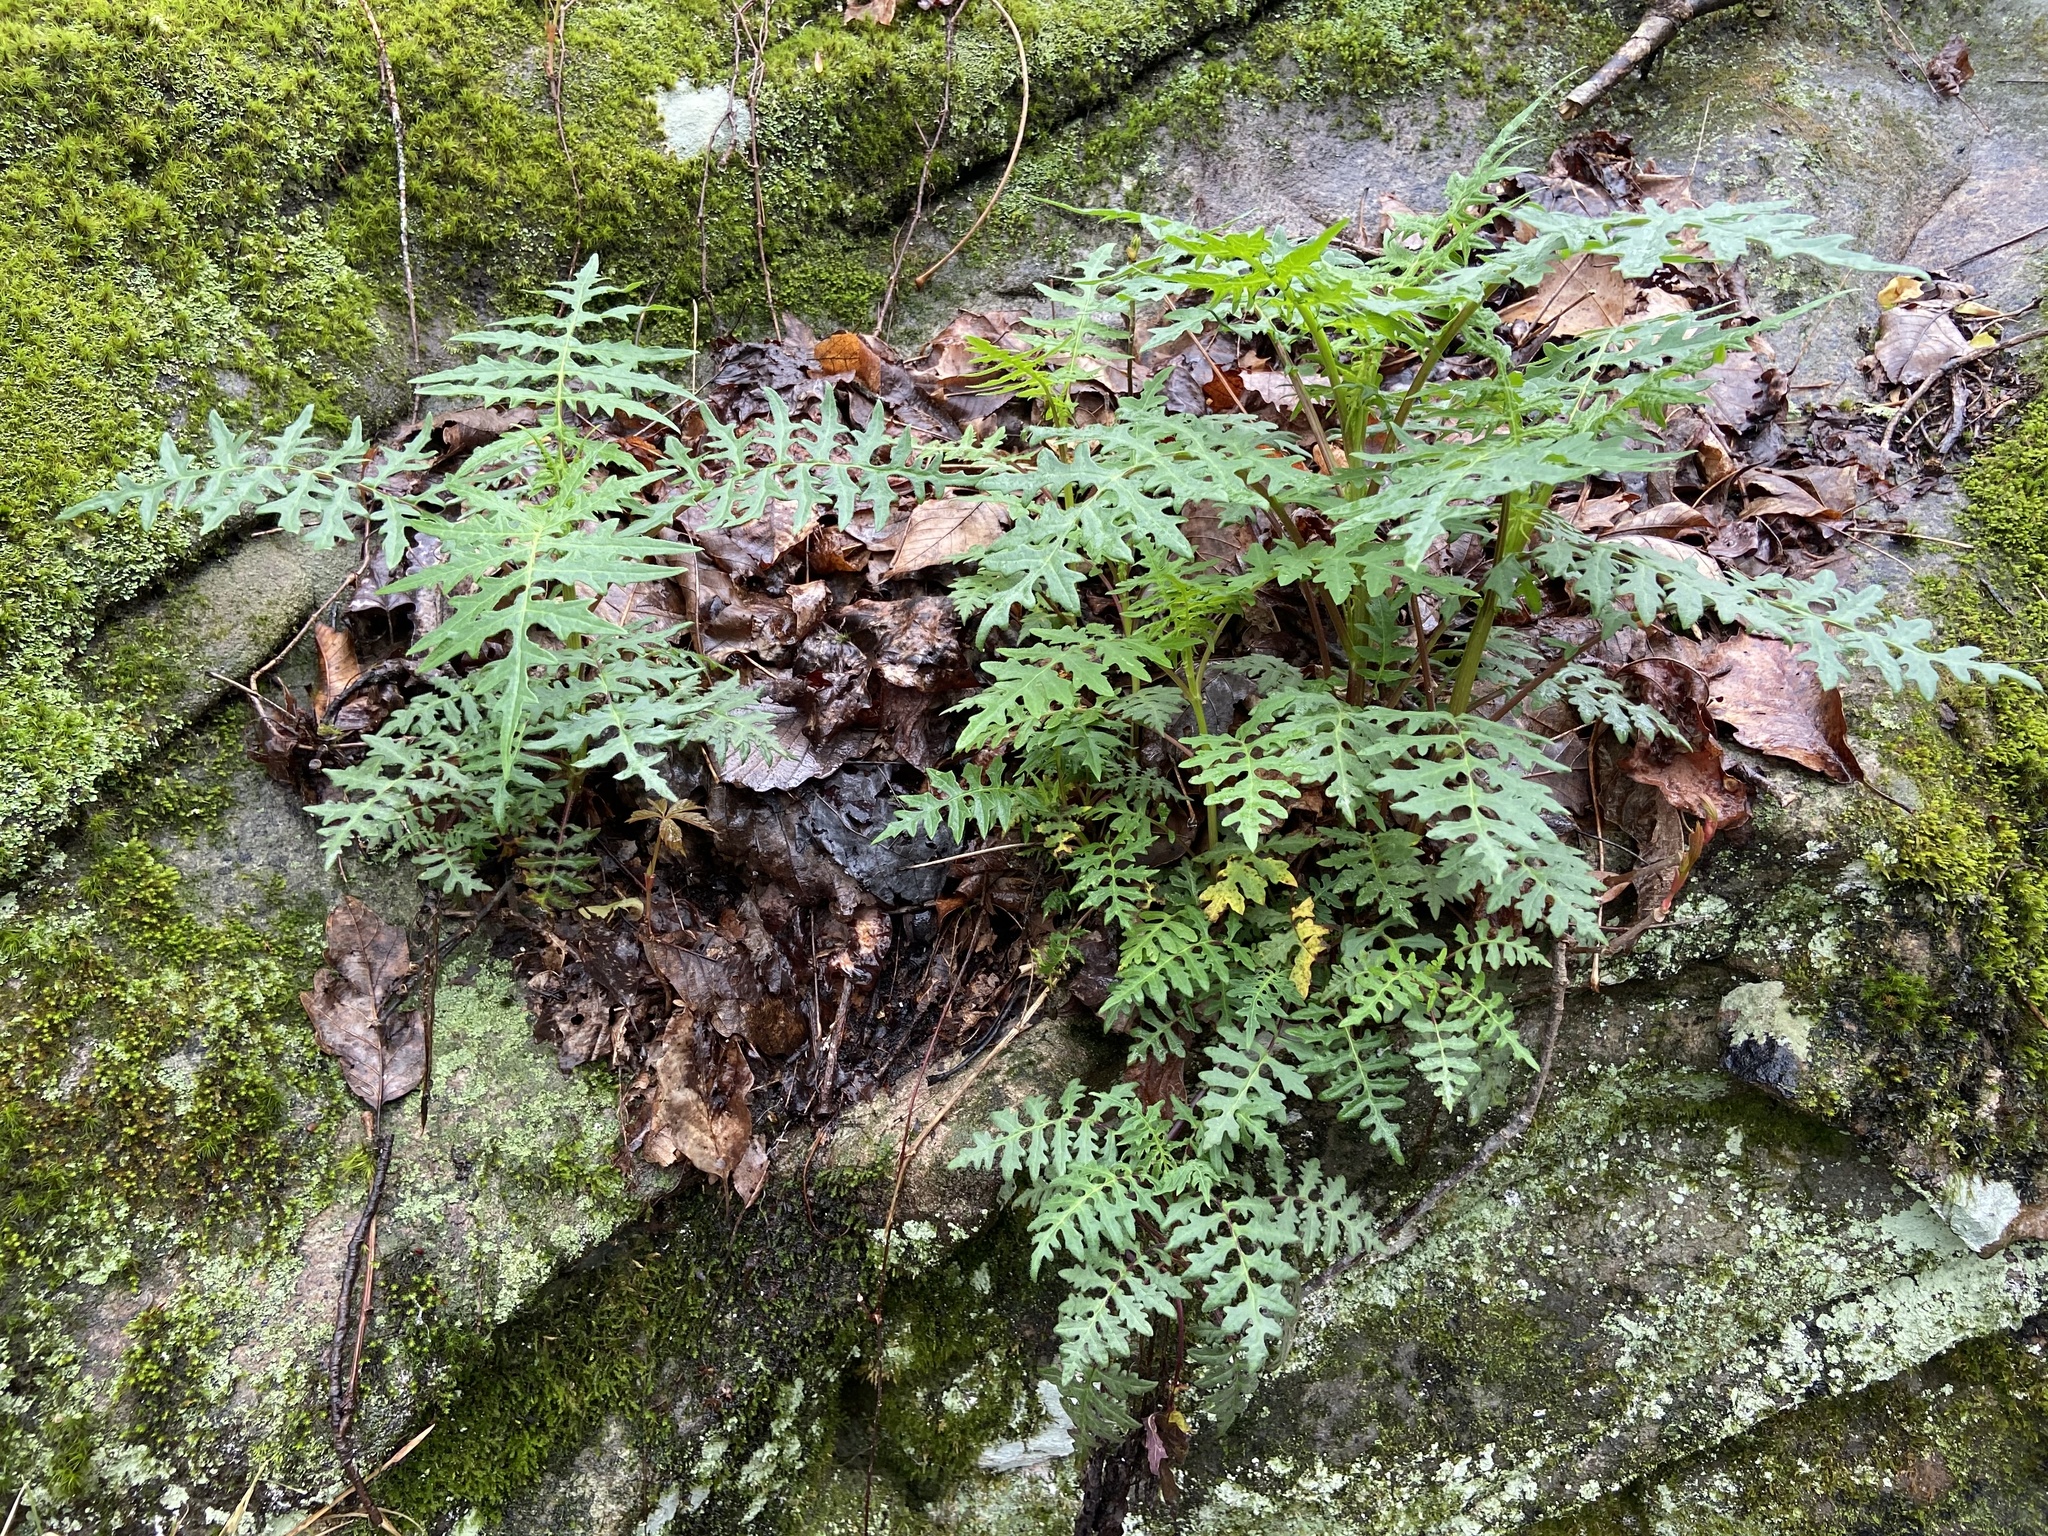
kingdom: Plantae
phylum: Tracheophyta
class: Magnoliopsida
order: Asterales
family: Asteraceae
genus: Polymnia
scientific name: Polymnia canadensis
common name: Pale-flowered leafcup
